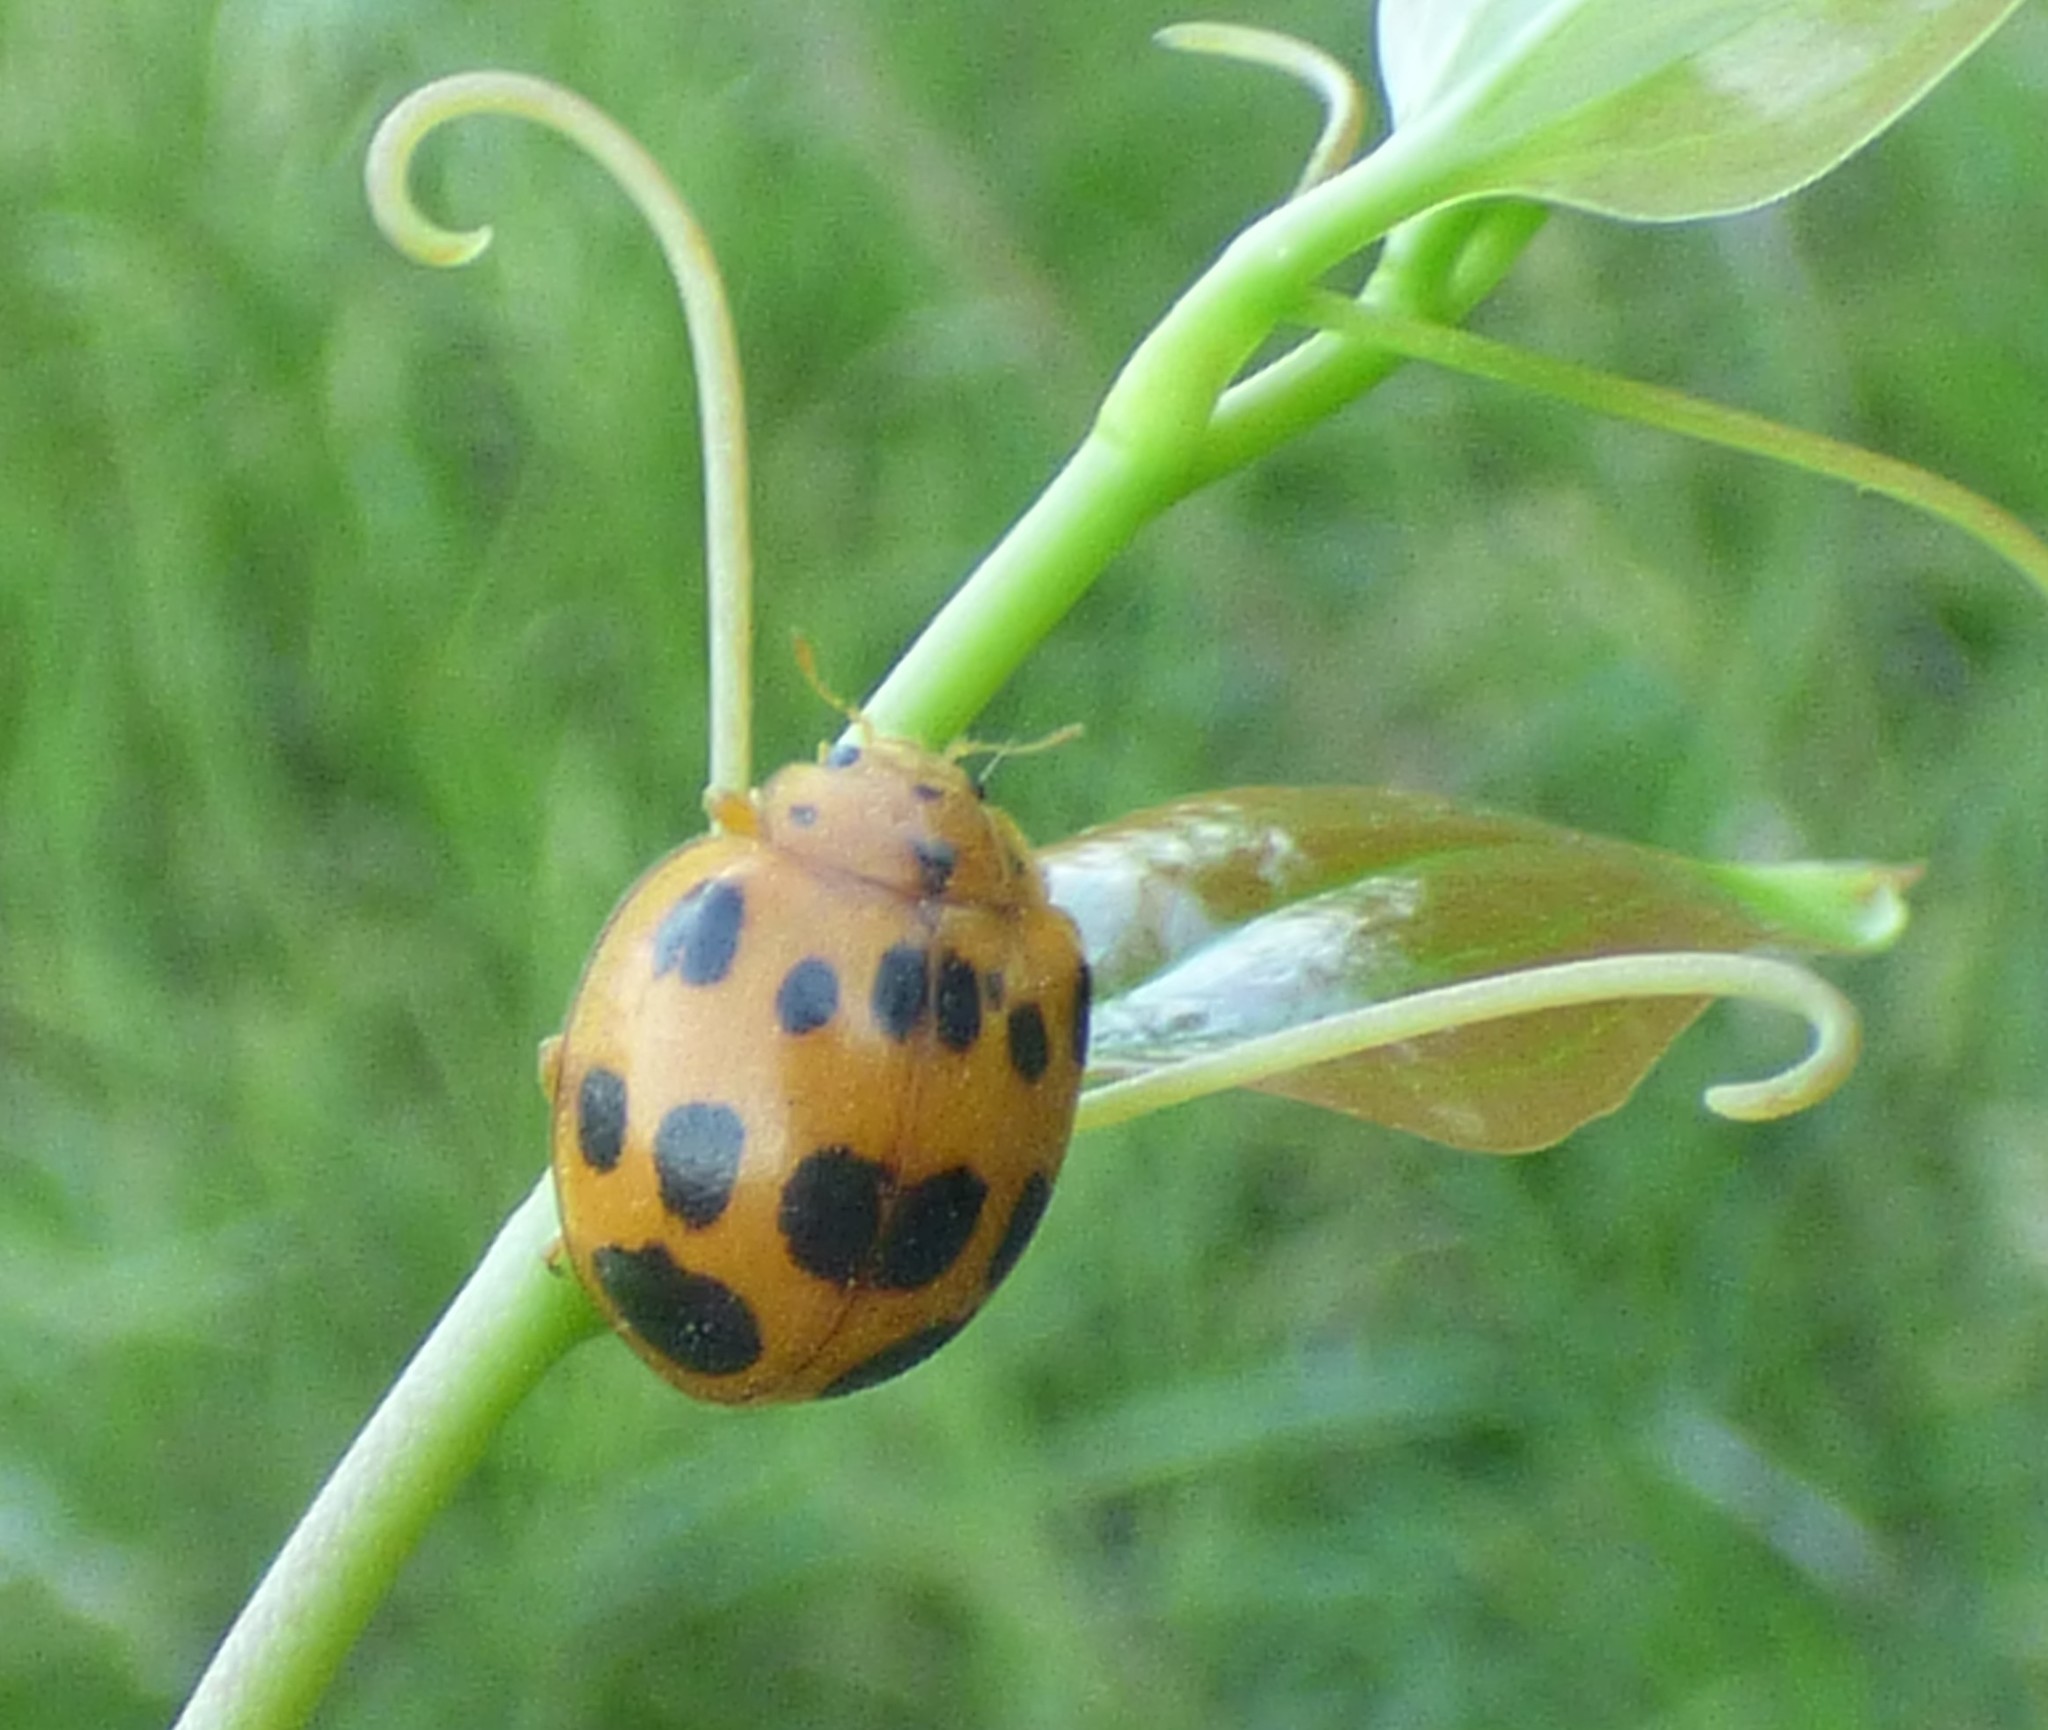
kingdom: Animalia
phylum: Arthropoda
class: Insecta
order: Coleoptera
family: Coccinellidae
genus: Epilachna
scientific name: Epilachna borealis
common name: Squash beetle
